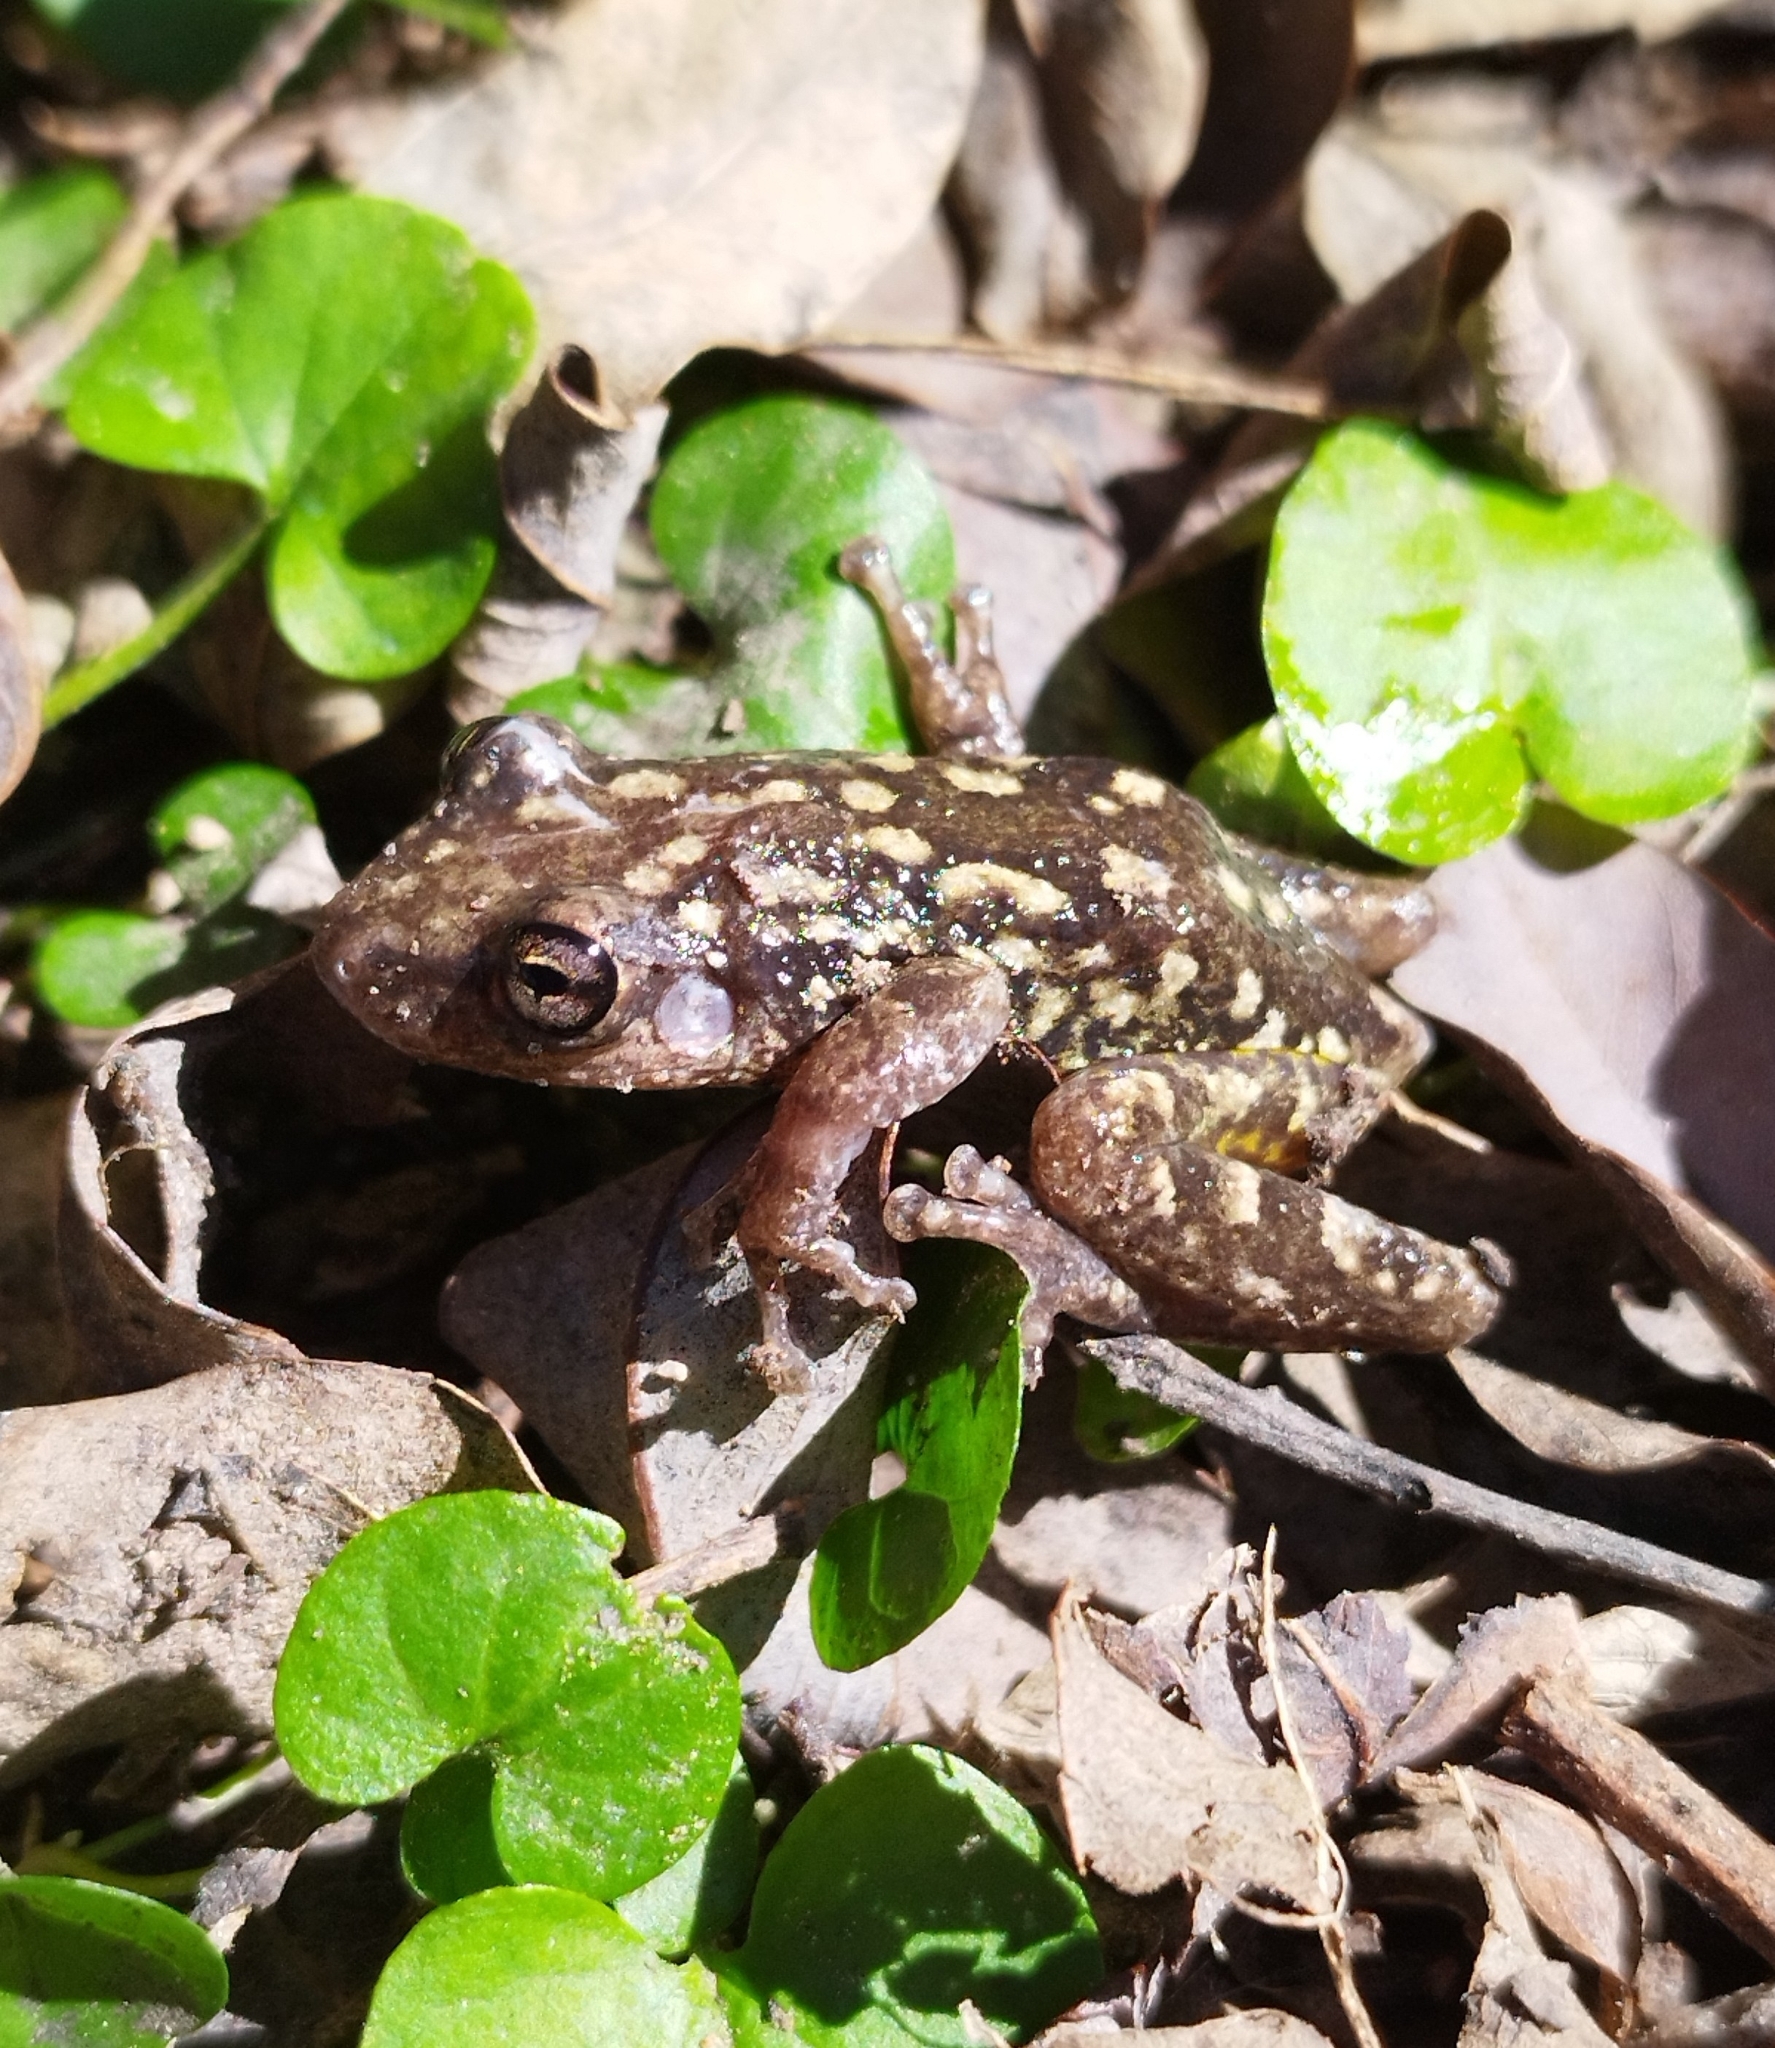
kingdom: Animalia
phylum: Chordata
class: Amphibia
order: Anura
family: Hylidae
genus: Scinax
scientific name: Scinax nasicus
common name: Lesser snouted treefrog
